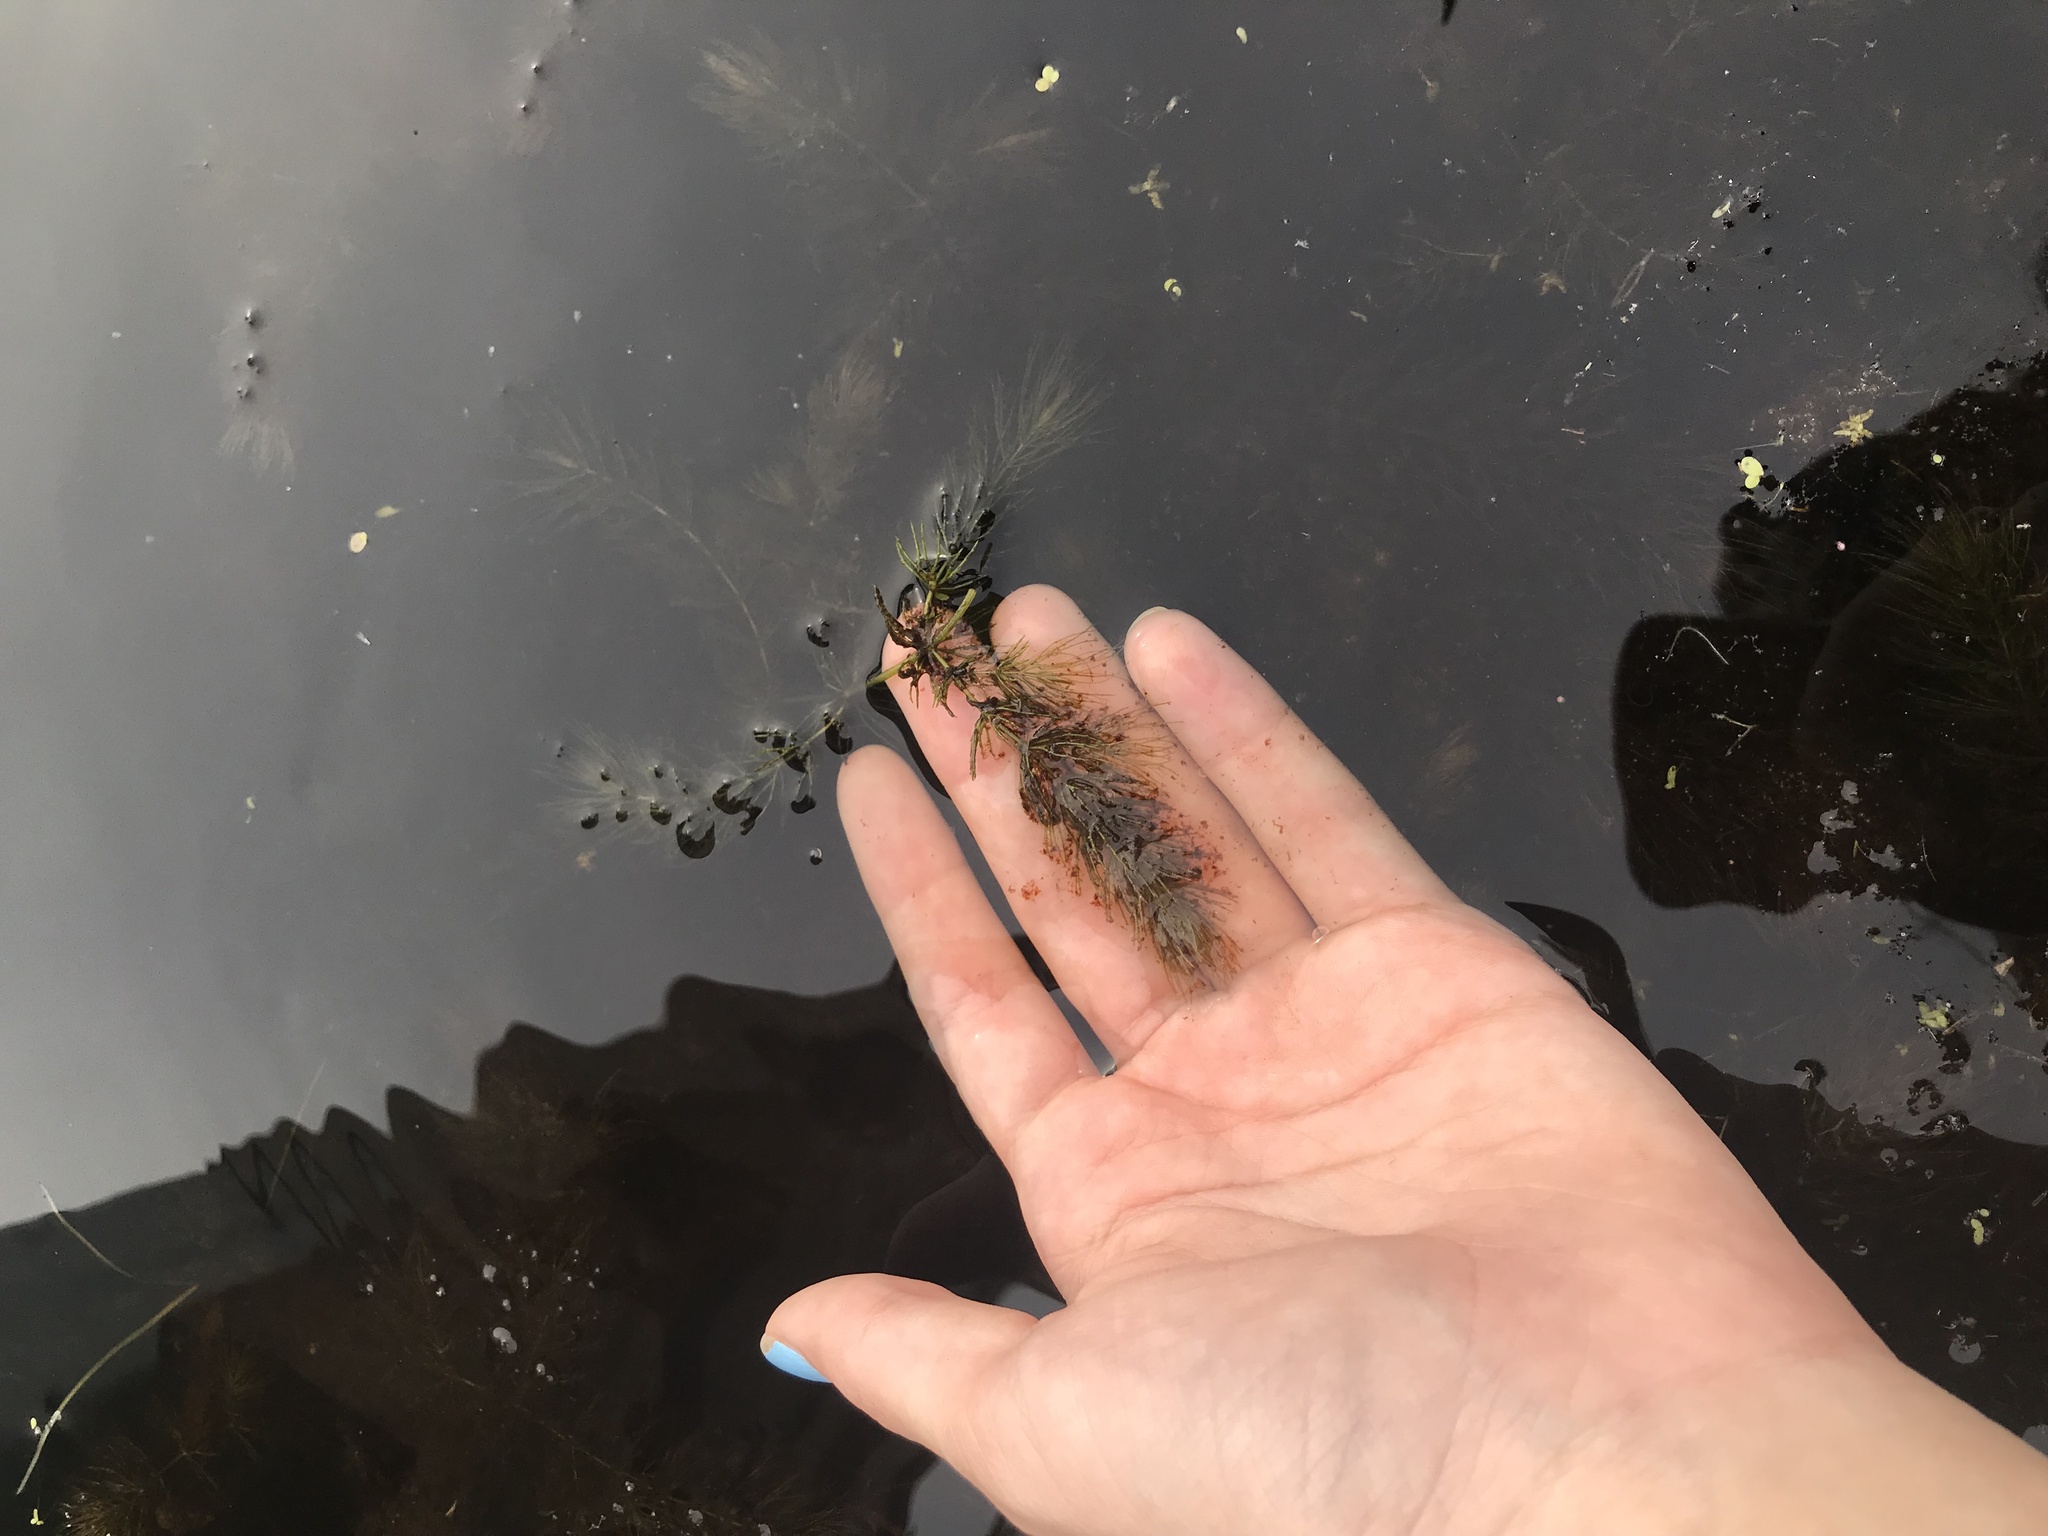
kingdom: Plantae
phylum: Tracheophyta
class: Magnoliopsida
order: Ceratophyllales
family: Ceratophyllaceae
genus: Ceratophyllum
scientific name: Ceratophyllum demersum
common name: Rigid hornwort
